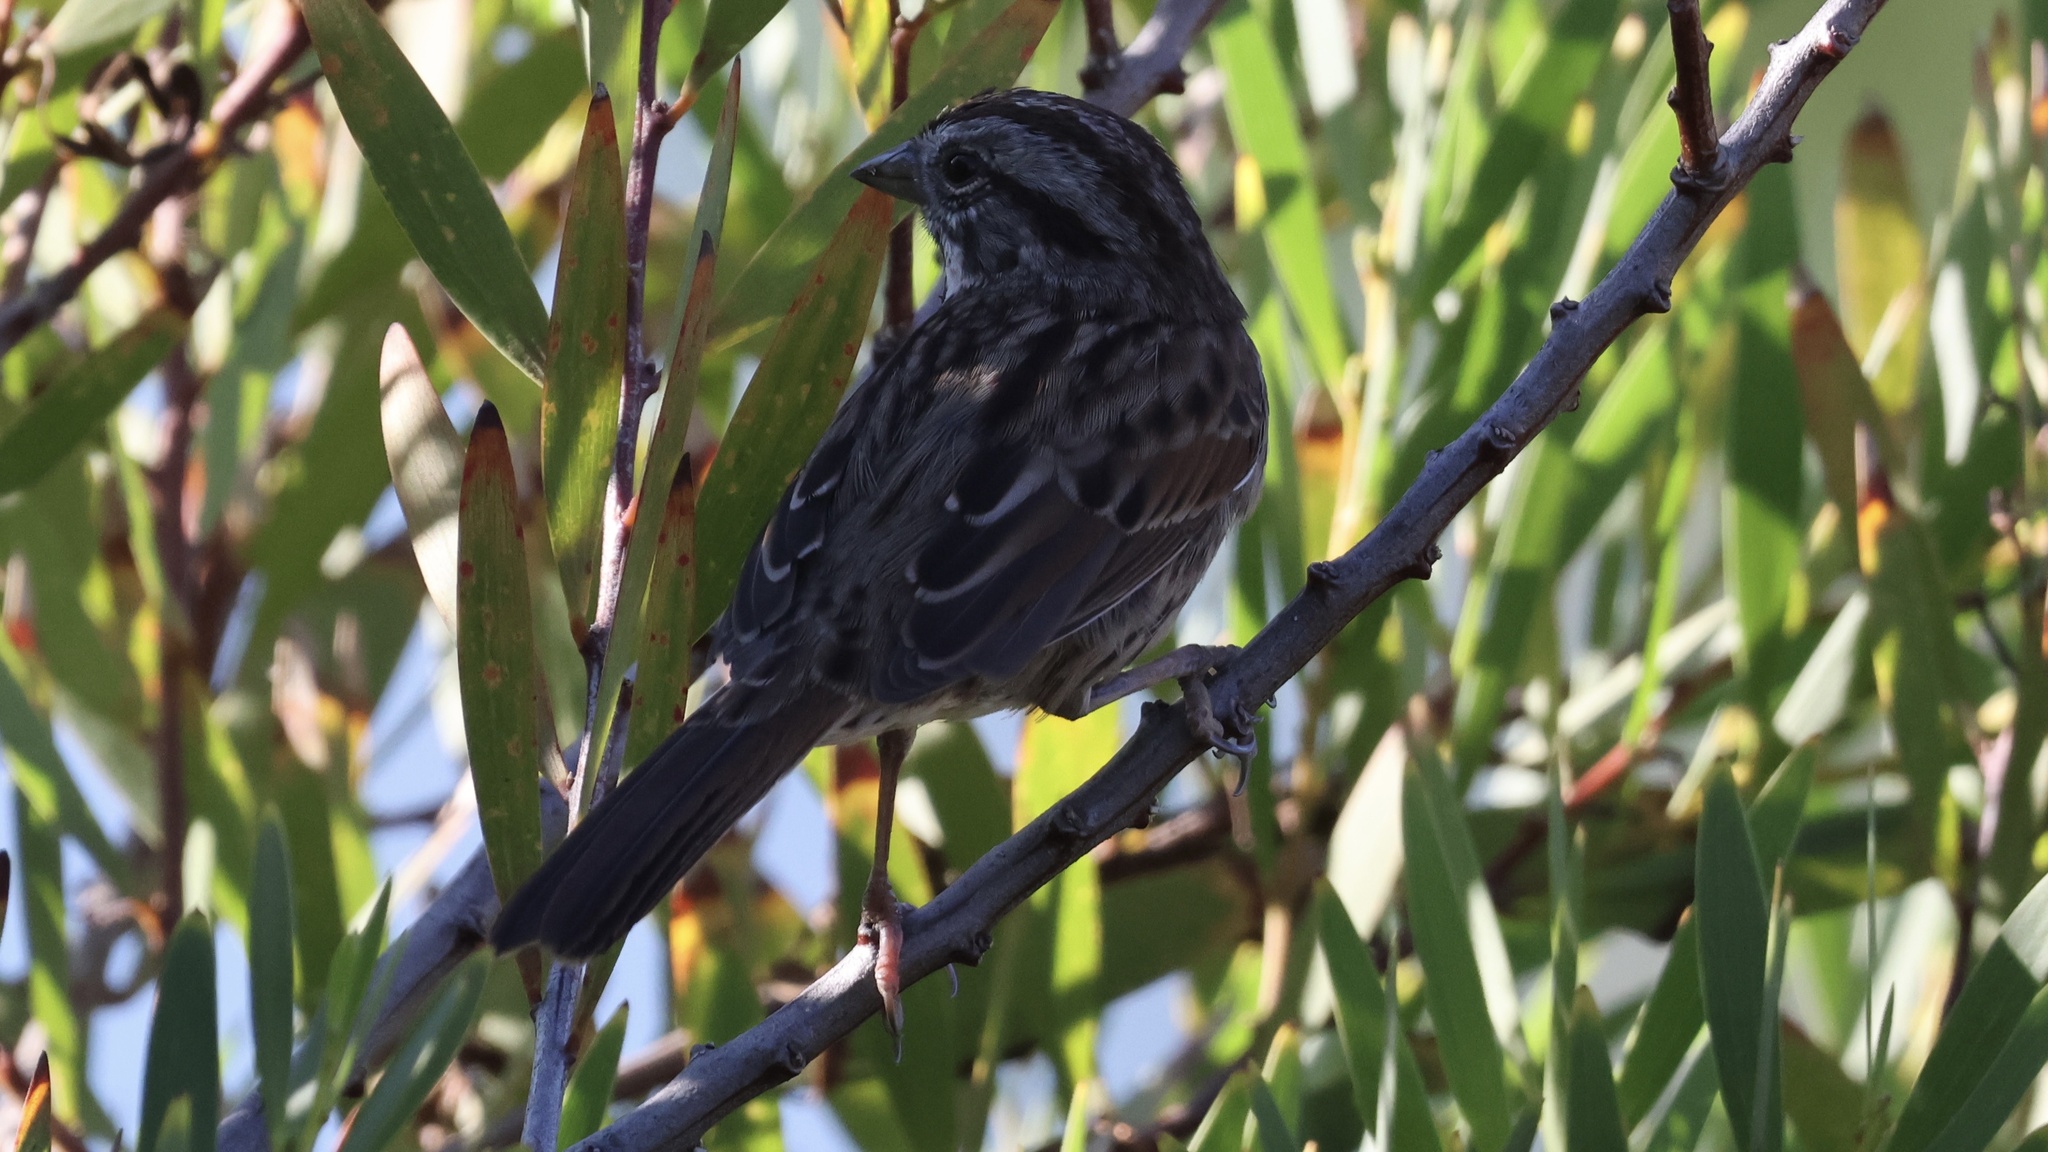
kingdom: Animalia
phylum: Chordata
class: Aves
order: Passeriformes
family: Passerellidae
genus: Melospiza
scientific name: Melospiza melodia
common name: Song sparrow
